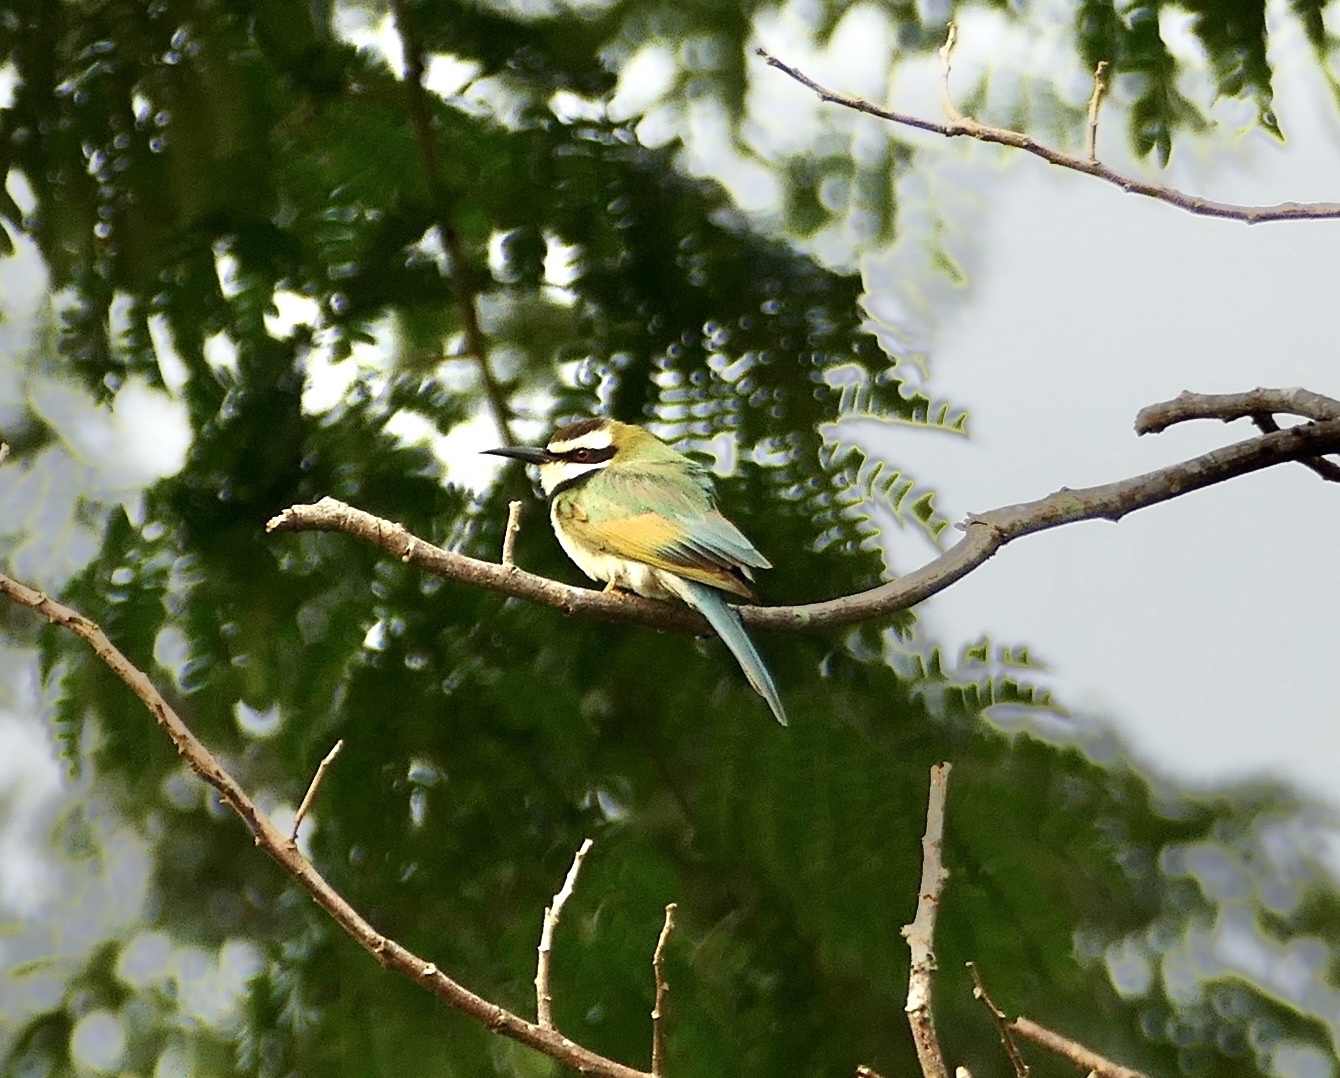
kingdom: Animalia
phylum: Chordata
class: Aves
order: Coraciiformes
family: Meropidae
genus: Merops
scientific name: Merops albicollis
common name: White-throated bee-eater
